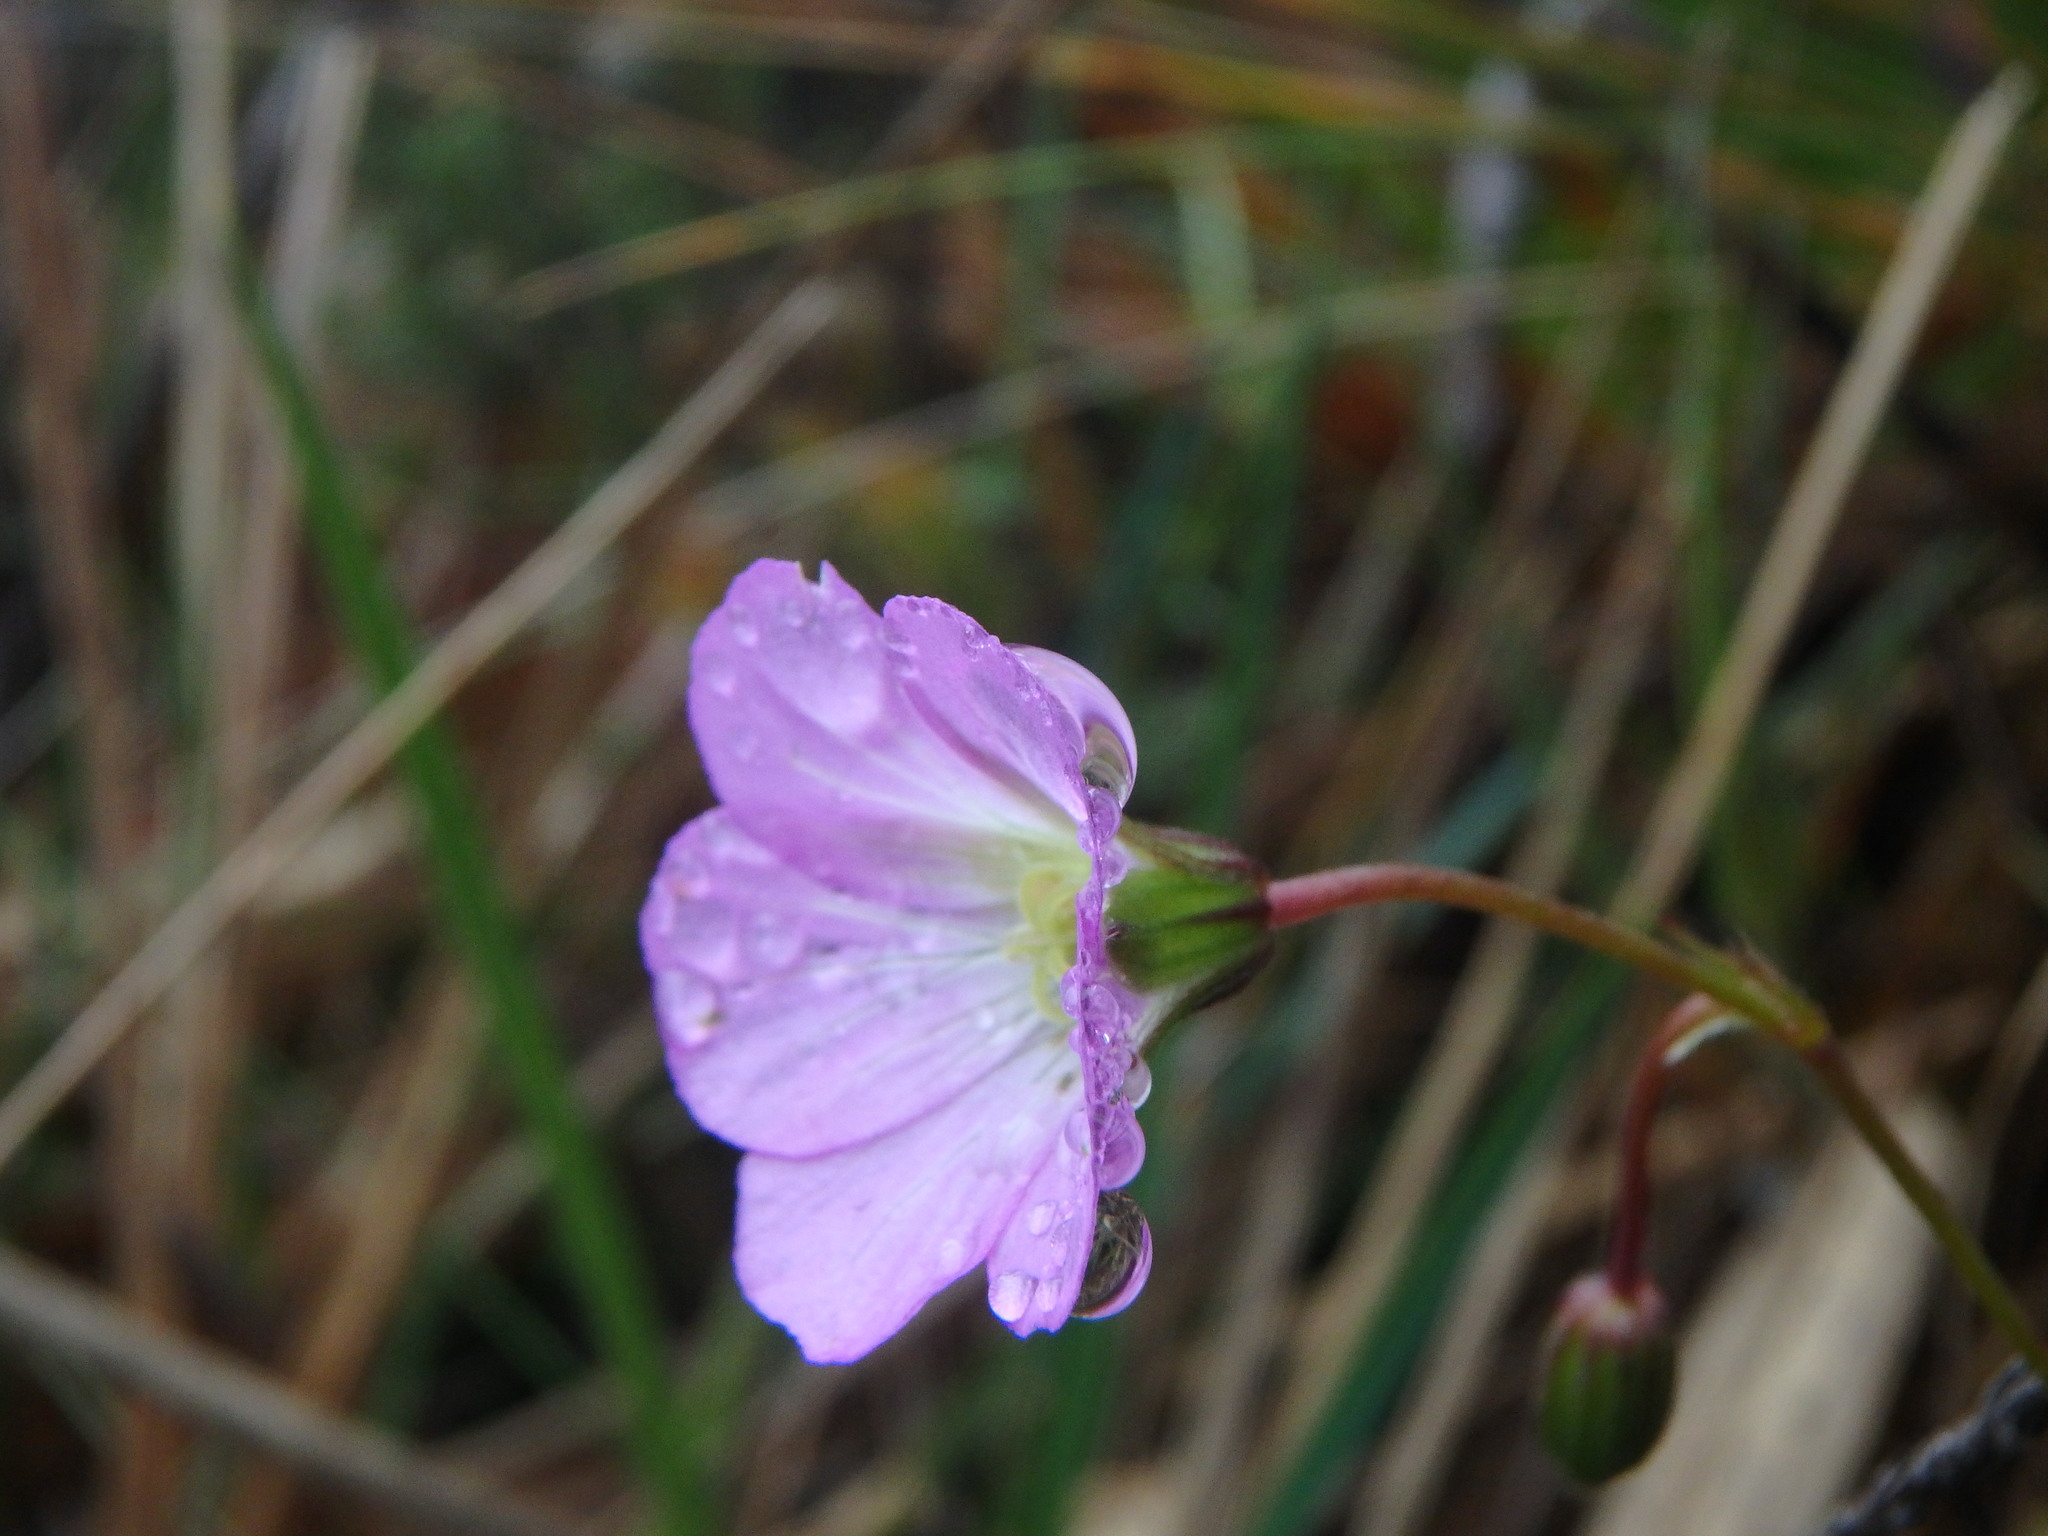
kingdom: Plantae
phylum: Tracheophyta
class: Magnoliopsida
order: Geraniales
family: Geraniaceae
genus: Geranium
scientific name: Geranium santanderiense
